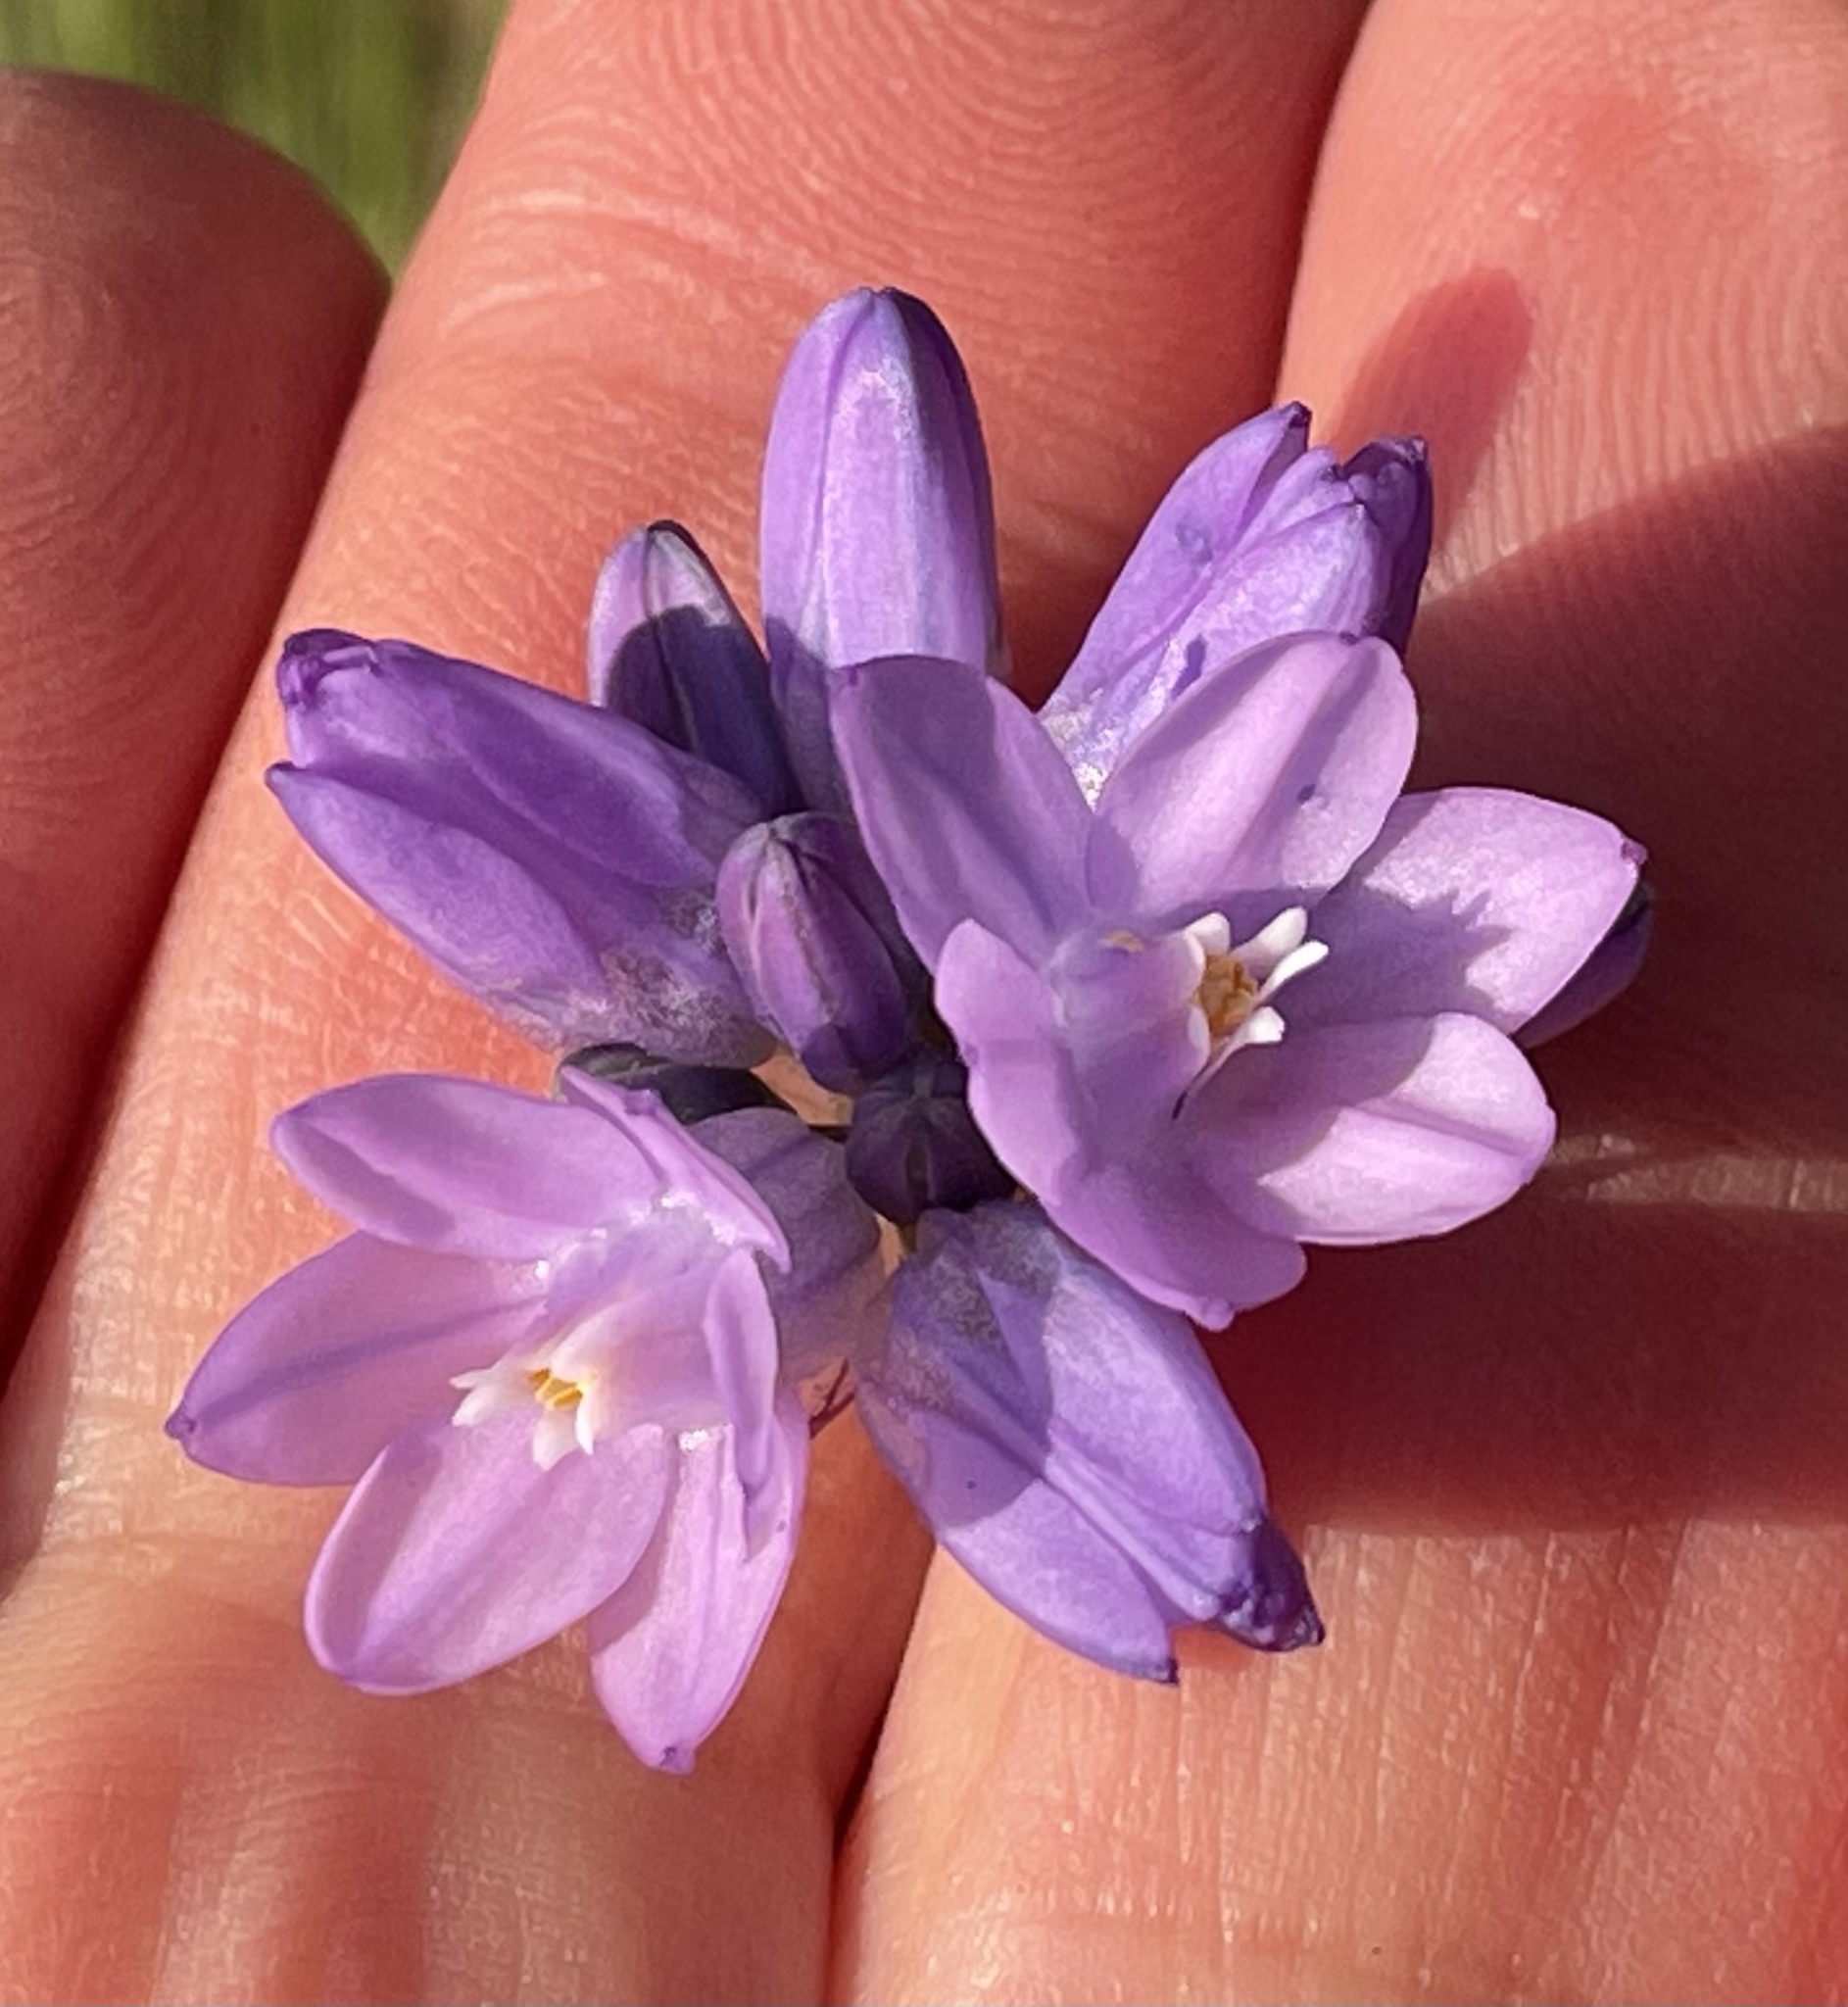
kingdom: Plantae
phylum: Tracheophyta
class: Liliopsida
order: Asparagales
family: Asparagaceae
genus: Dipterostemon
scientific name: Dipterostemon capitatus
